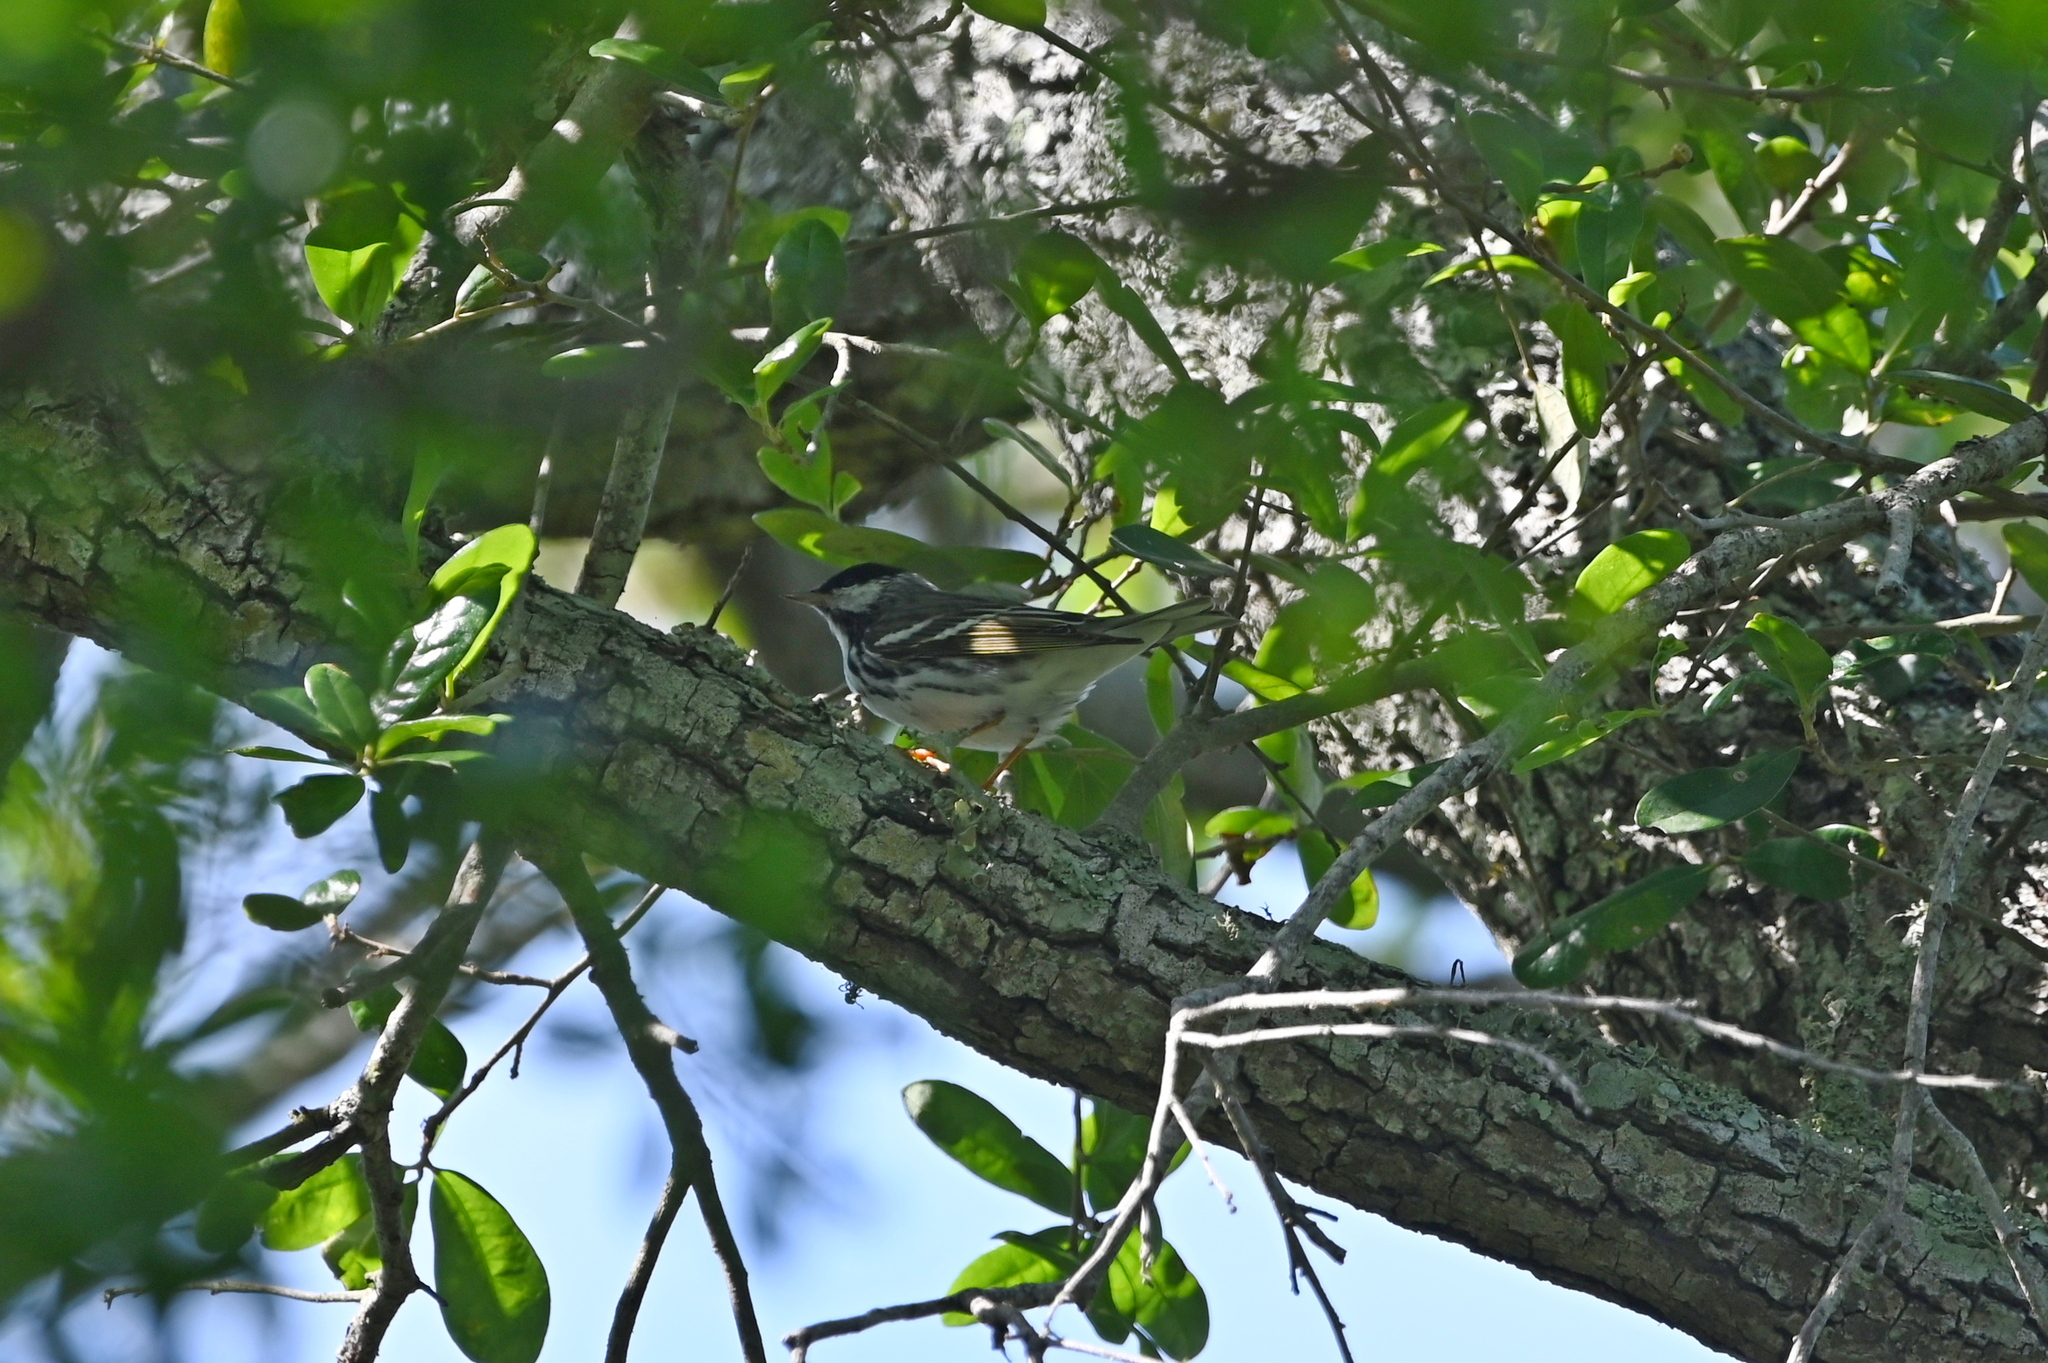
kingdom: Animalia
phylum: Chordata
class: Aves
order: Passeriformes
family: Parulidae
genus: Setophaga
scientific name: Setophaga striata
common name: Blackpoll warbler
